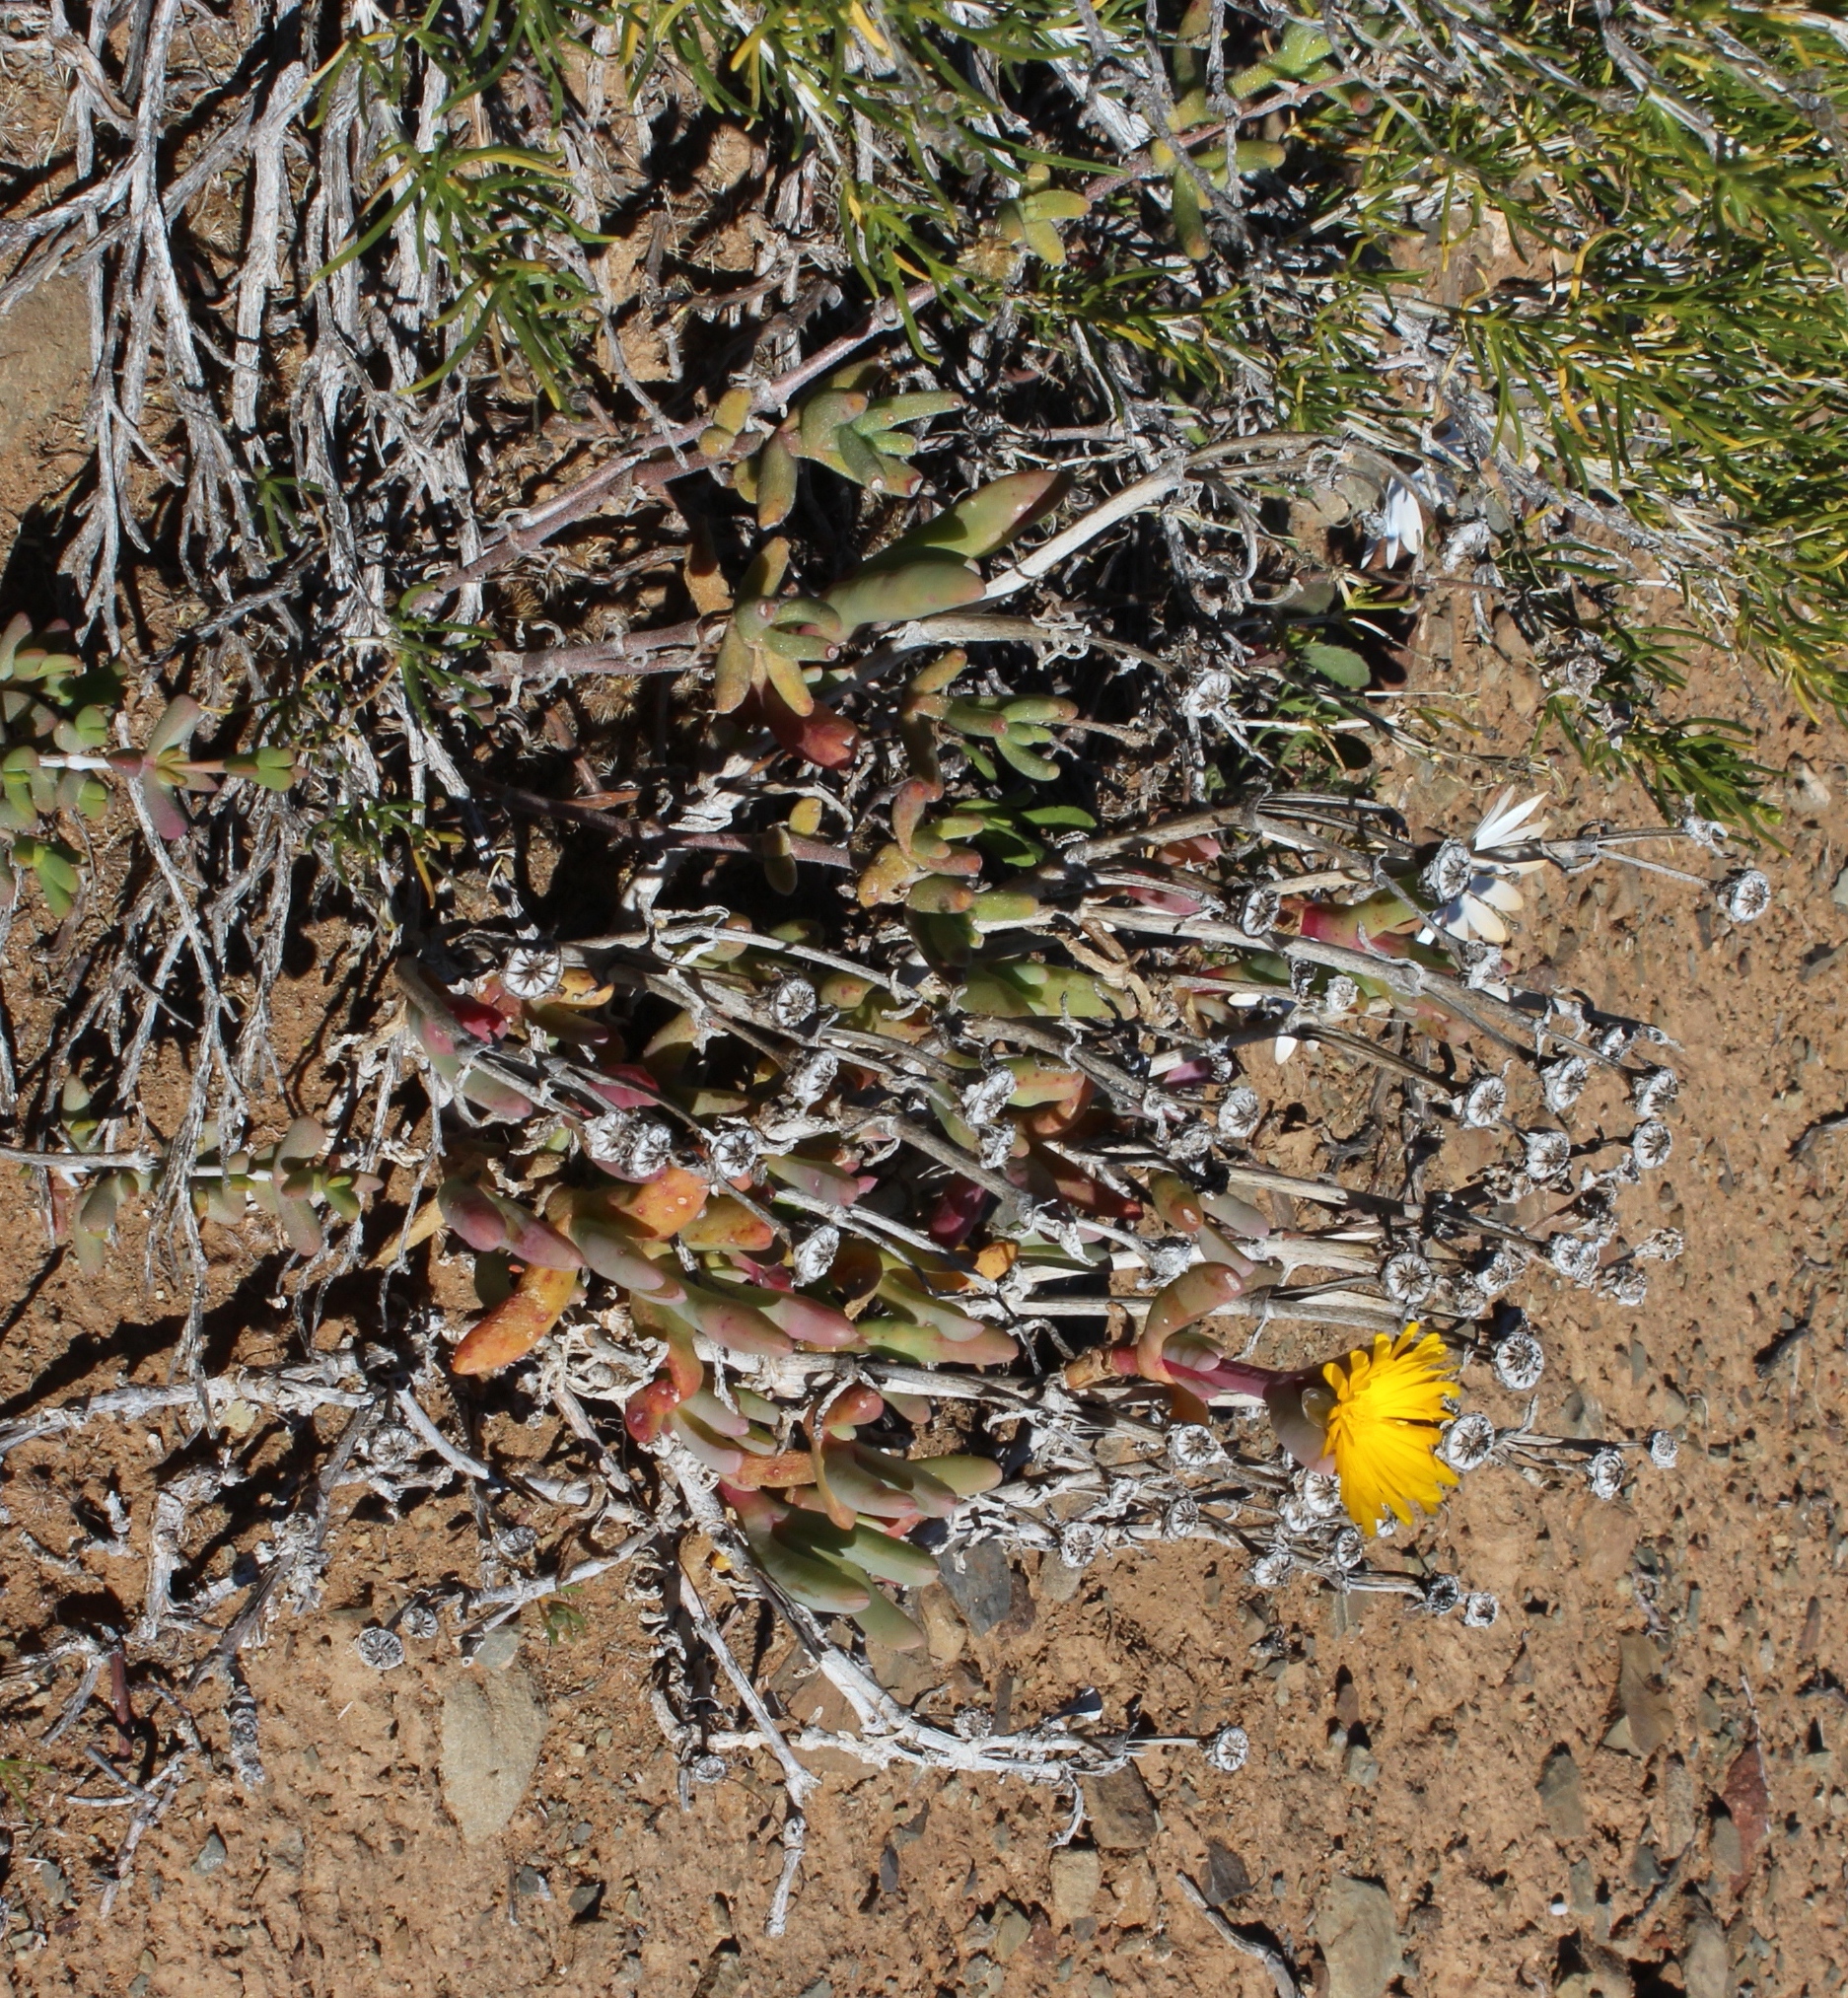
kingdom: Plantae
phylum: Tracheophyta
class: Magnoliopsida
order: Caryophyllales
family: Aizoaceae
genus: Malephora
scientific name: Malephora crassa
